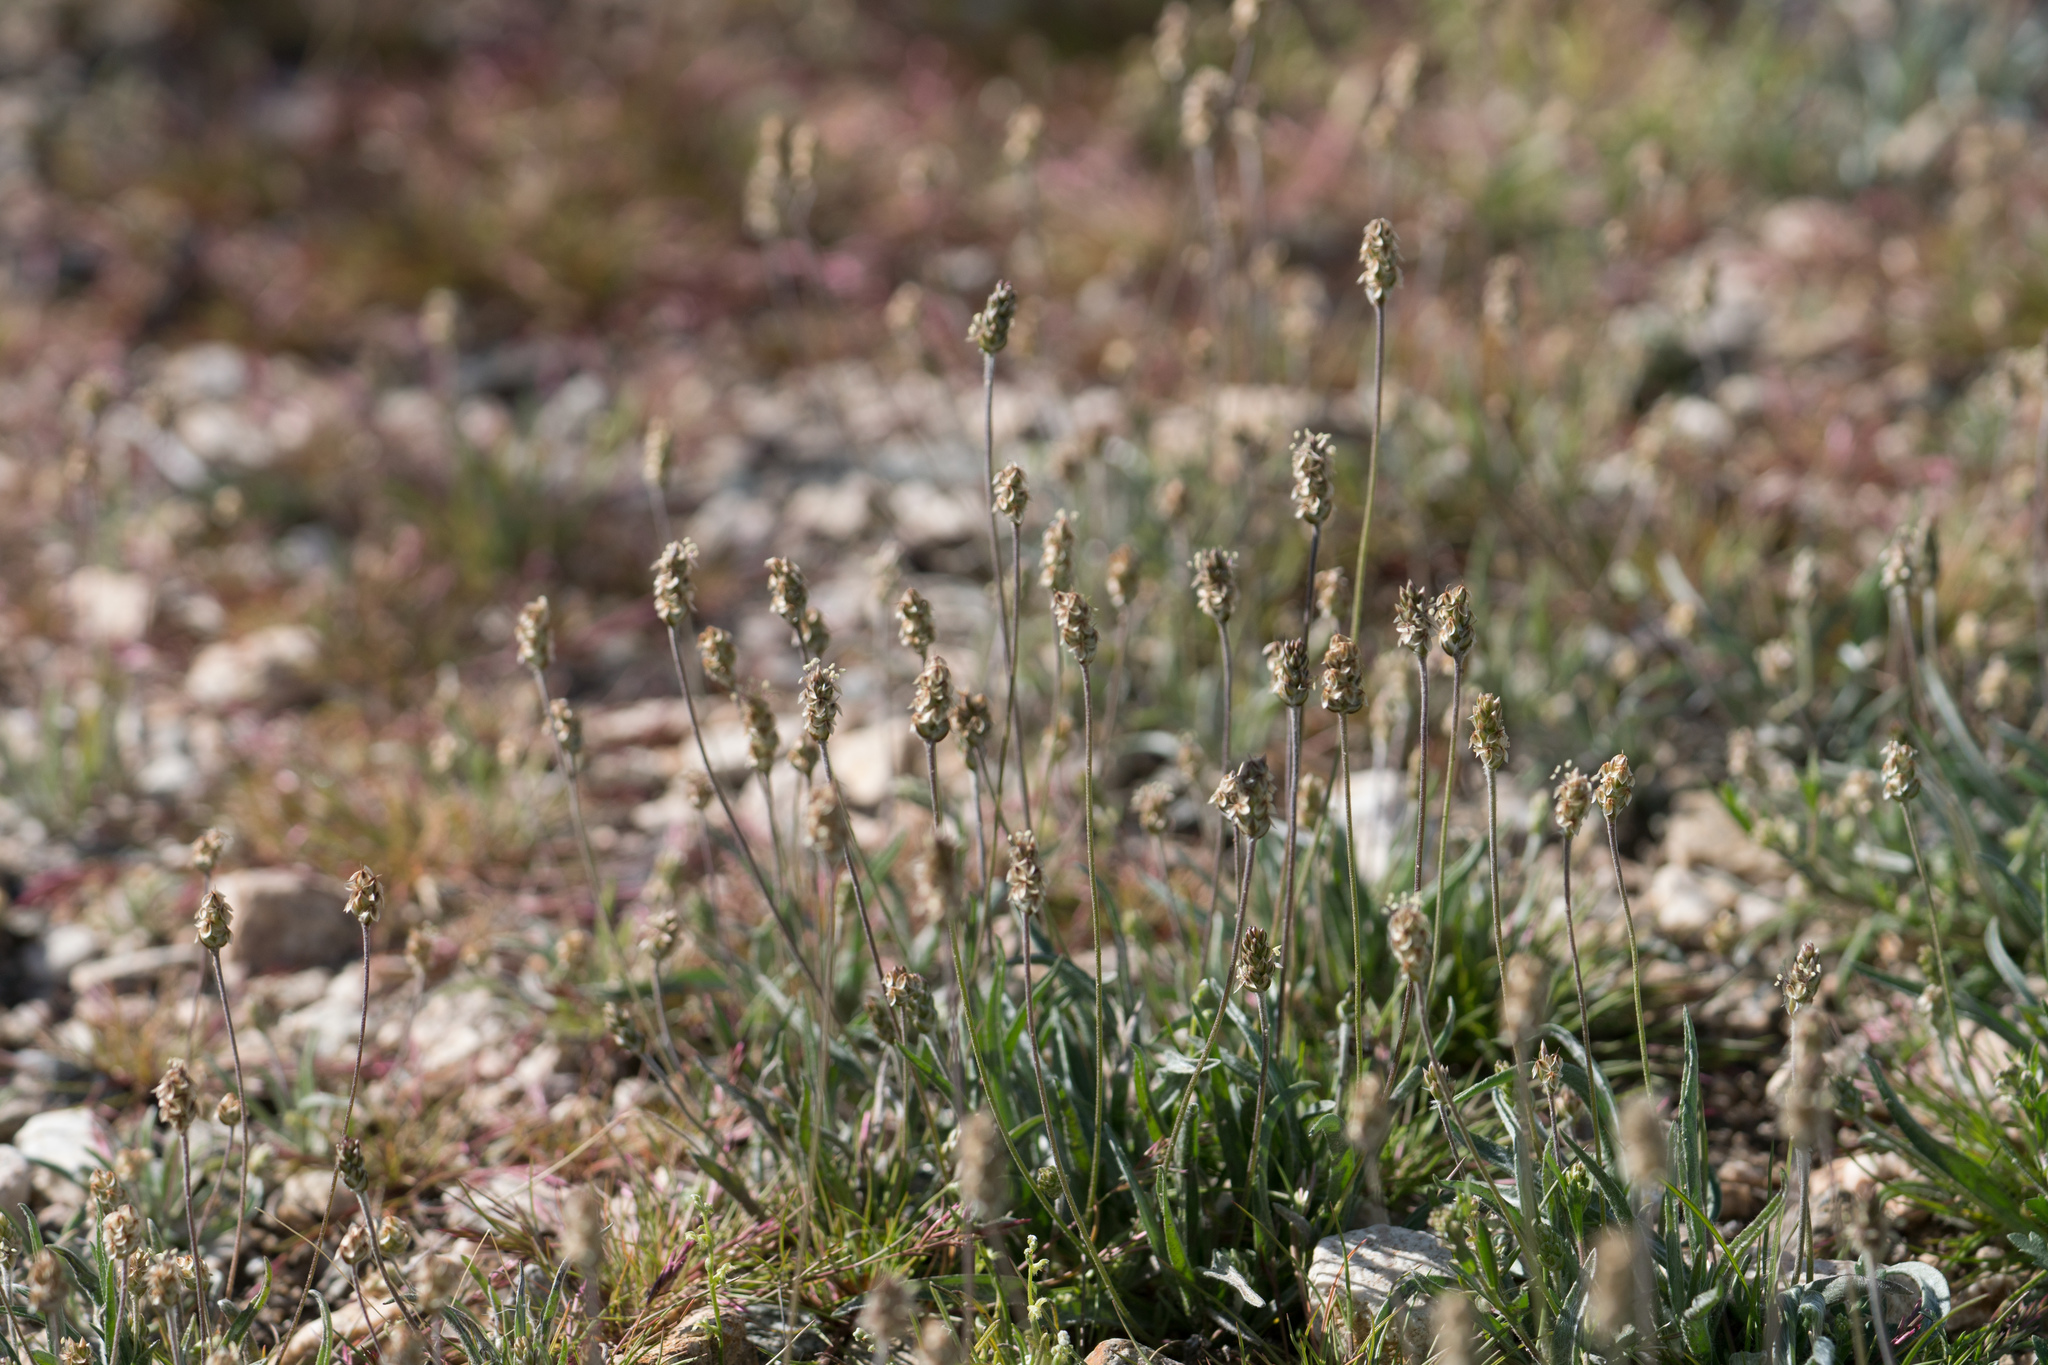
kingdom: Plantae
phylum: Tracheophyta
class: Magnoliopsida
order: Lamiales
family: Plantaginaceae
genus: Plantago
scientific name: Plantago ovata
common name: Blond plantain
